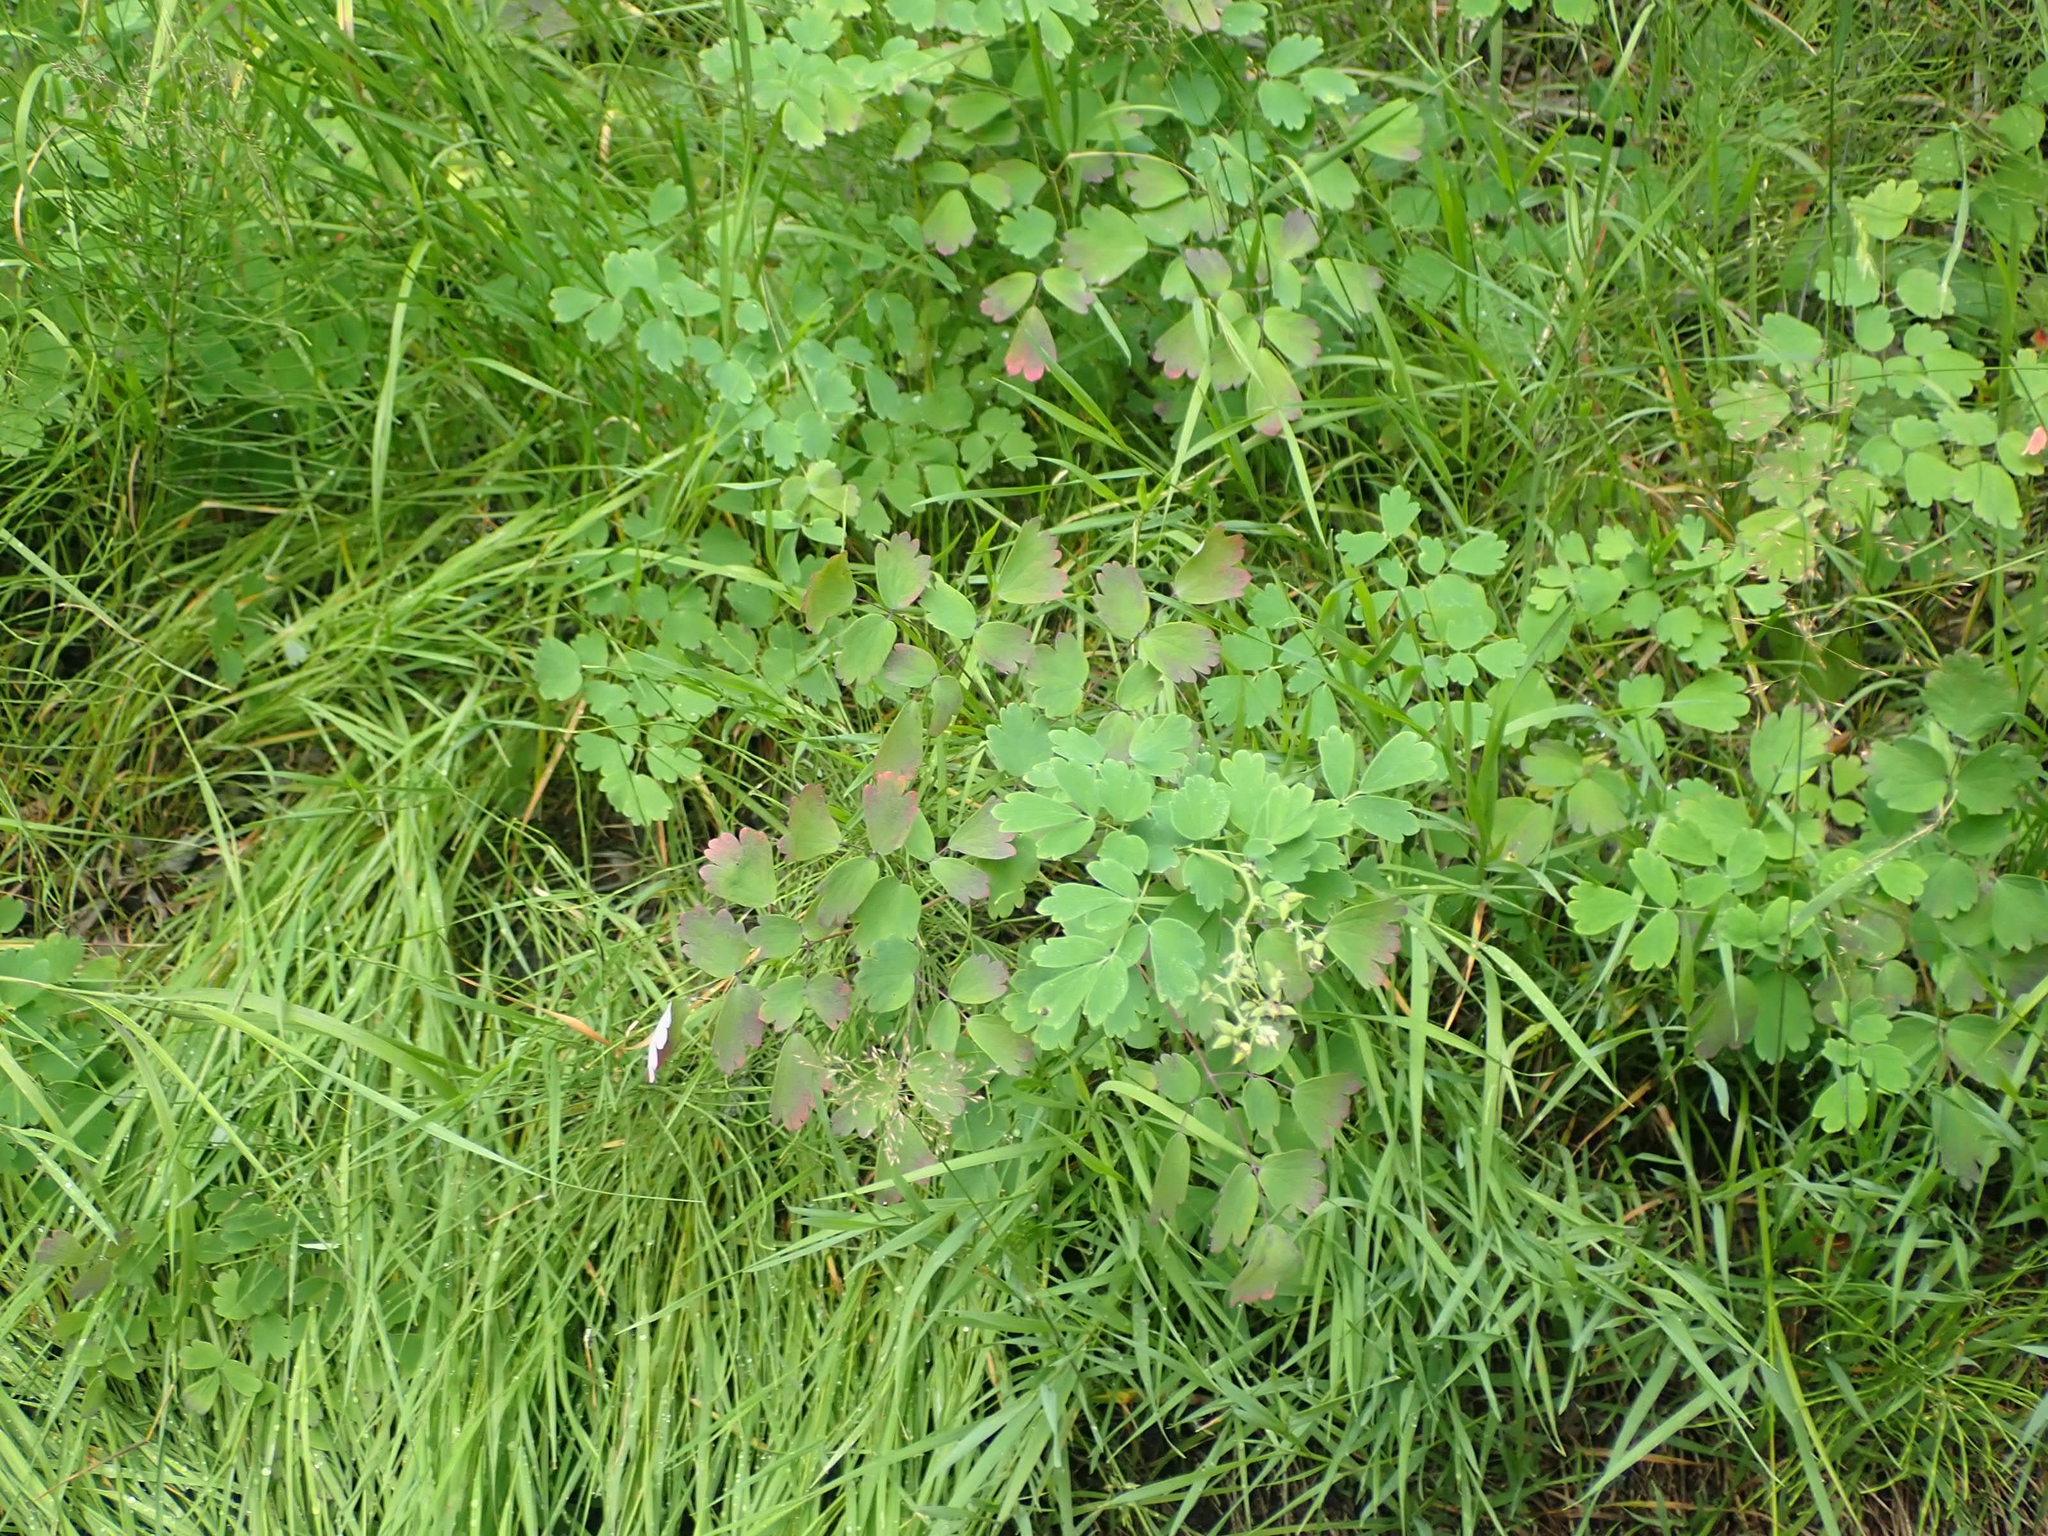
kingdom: Plantae
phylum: Tracheophyta
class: Magnoliopsida
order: Ranunculales
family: Ranunculaceae
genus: Thalictrum
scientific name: Thalictrum venulosum
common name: Early meadow-rue
